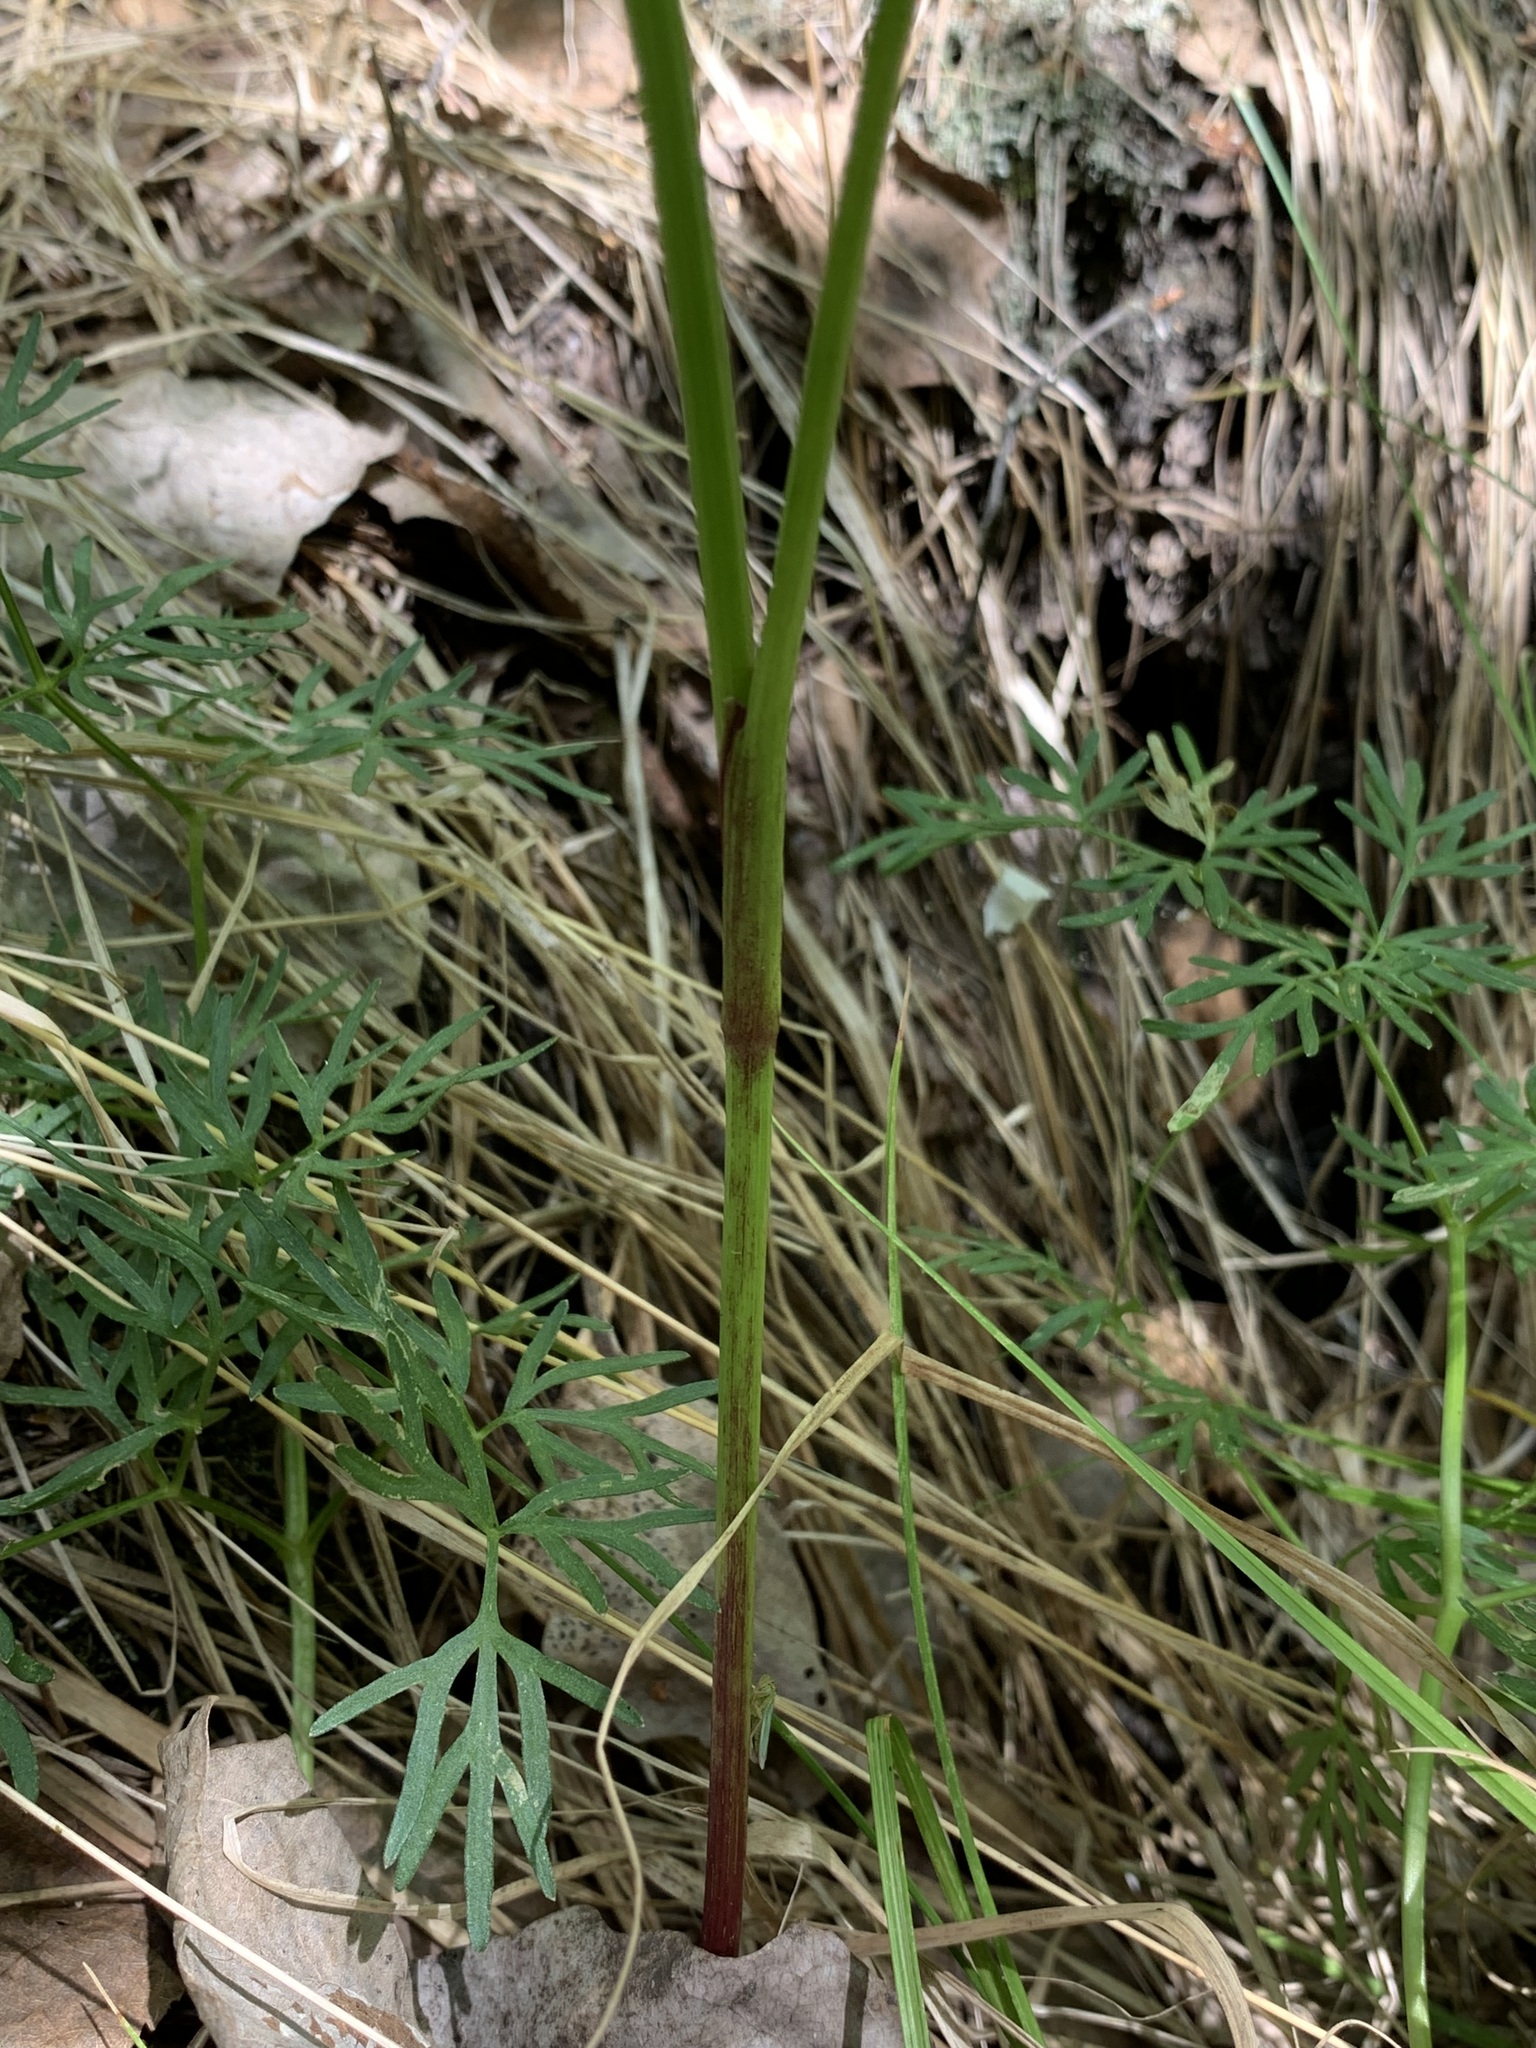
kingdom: Plantae
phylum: Tracheophyta
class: Magnoliopsida
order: Apiales
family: Apiaceae
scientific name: Apiaceae
